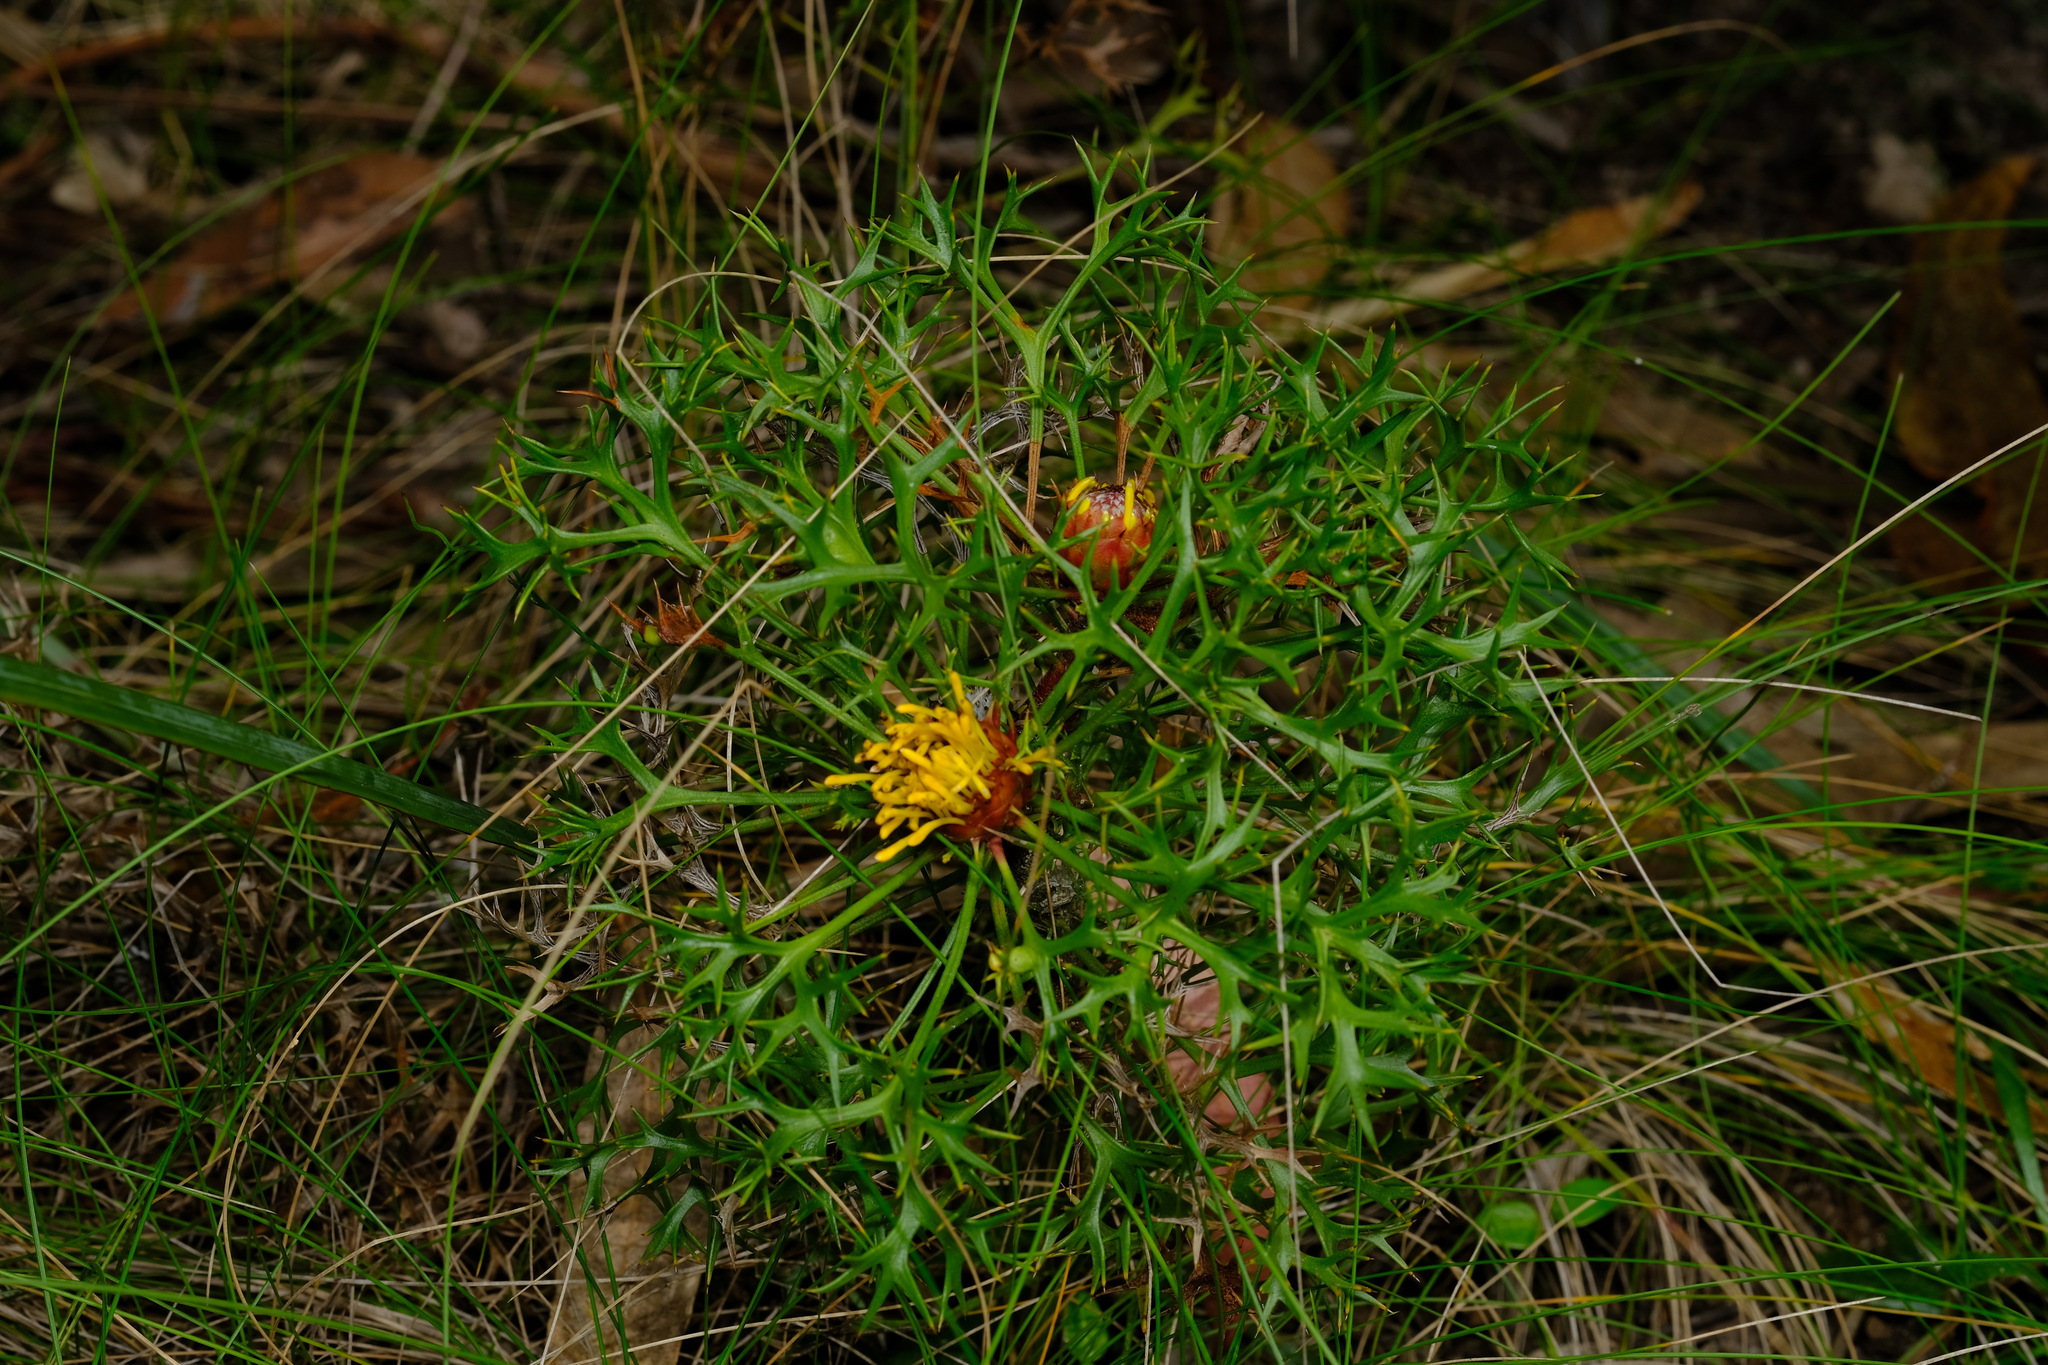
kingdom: Plantae
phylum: Tracheophyta
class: Magnoliopsida
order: Proteales
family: Proteaceae
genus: Isopogon
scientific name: Isopogon ceratophyllus
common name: Horny cone-bush
